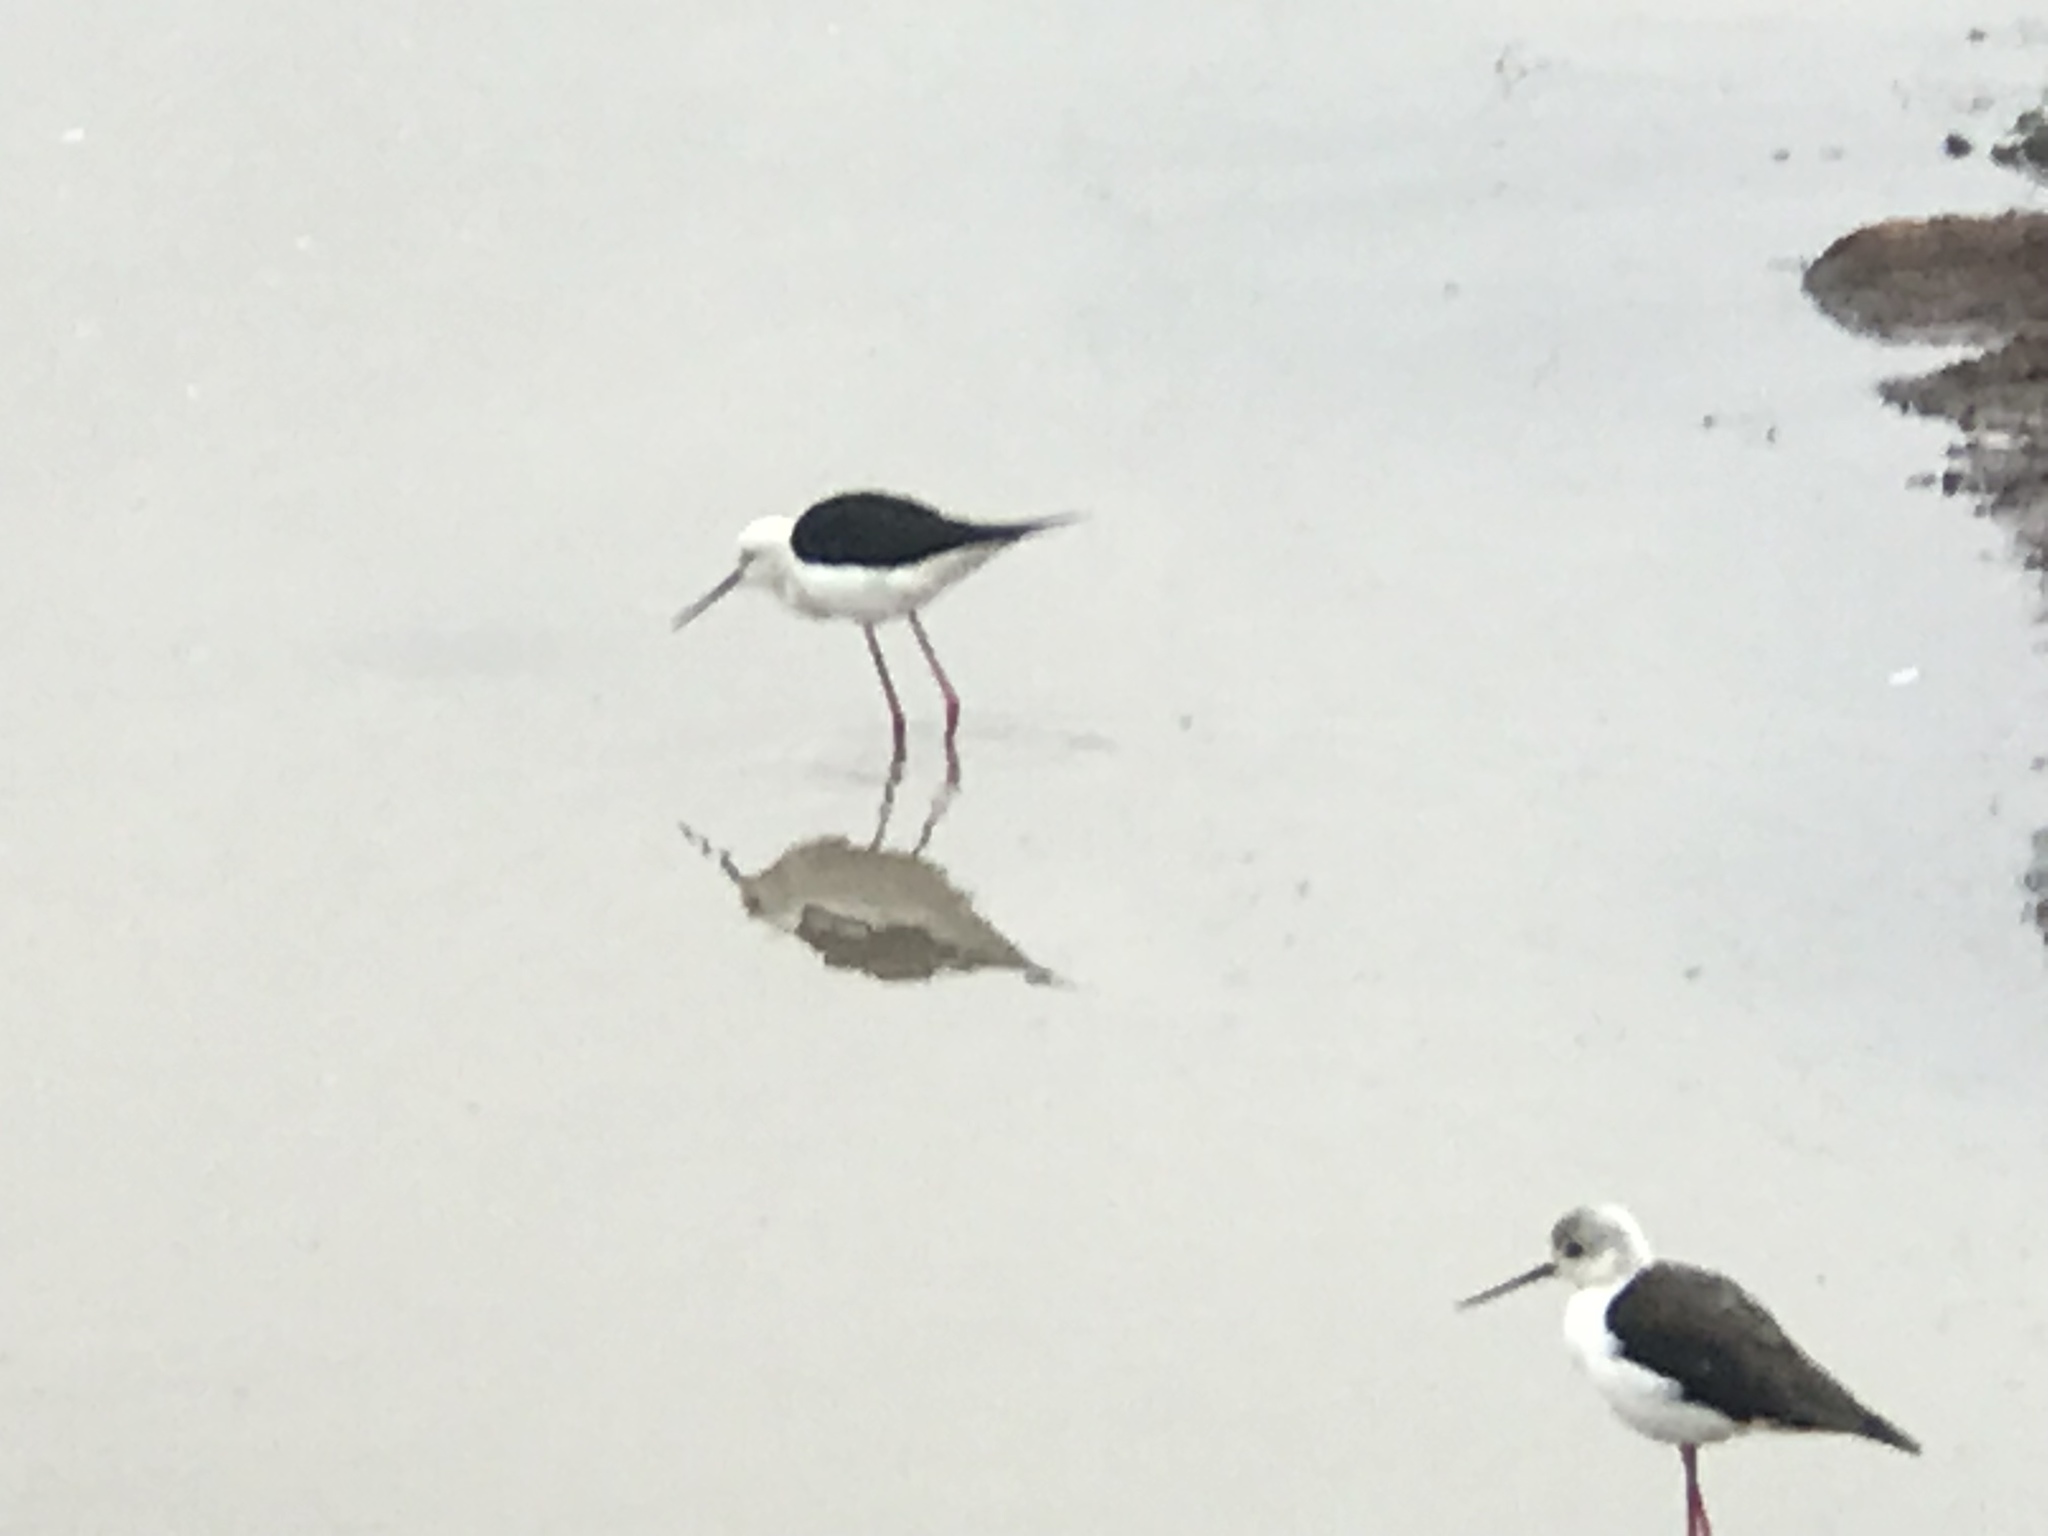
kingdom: Animalia
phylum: Chordata
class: Aves
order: Charadriiformes
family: Recurvirostridae
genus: Himantopus
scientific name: Himantopus himantopus
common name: Black-winged stilt
